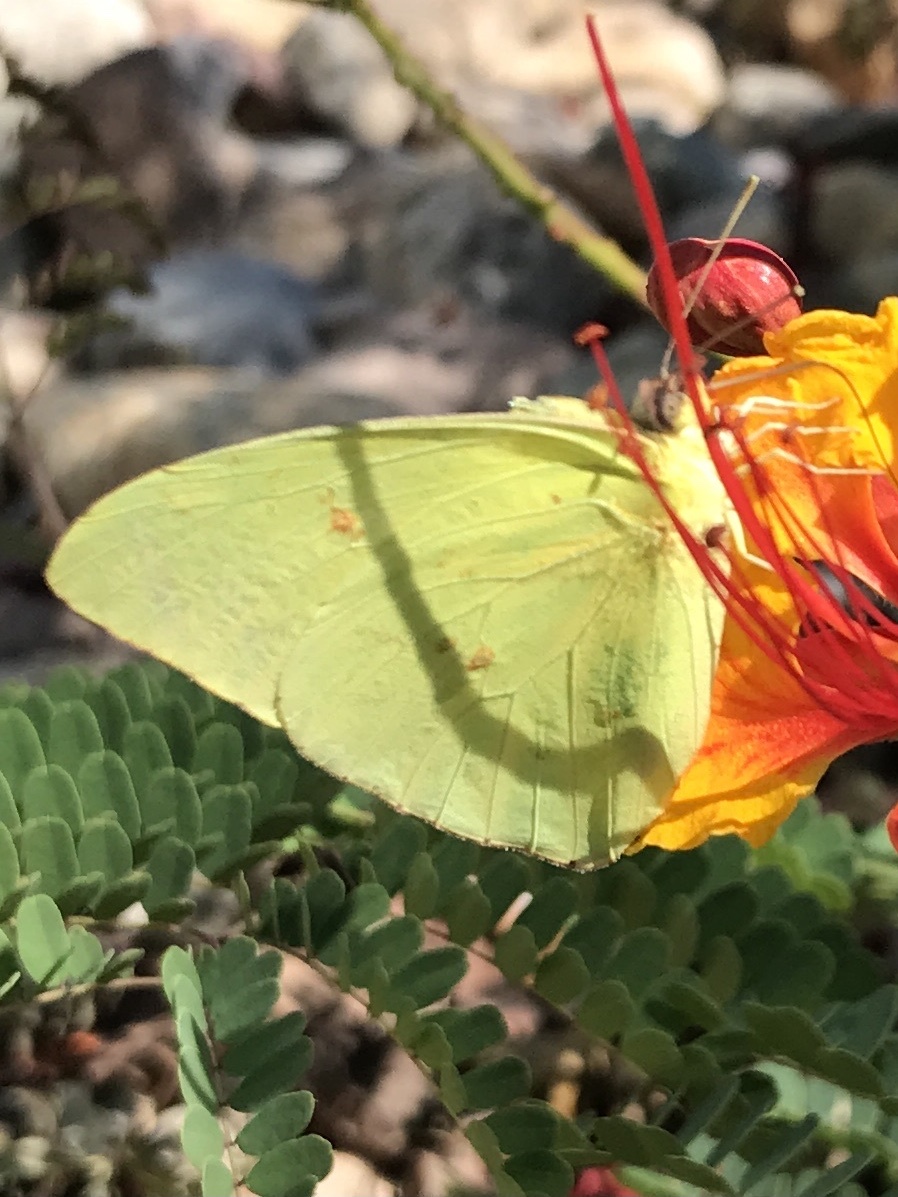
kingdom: Animalia
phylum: Arthropoda
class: Insecta
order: Lepidoptera
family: Pieridae
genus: Phoebis
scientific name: Phoebis sennae
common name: Cloudless sulphur
